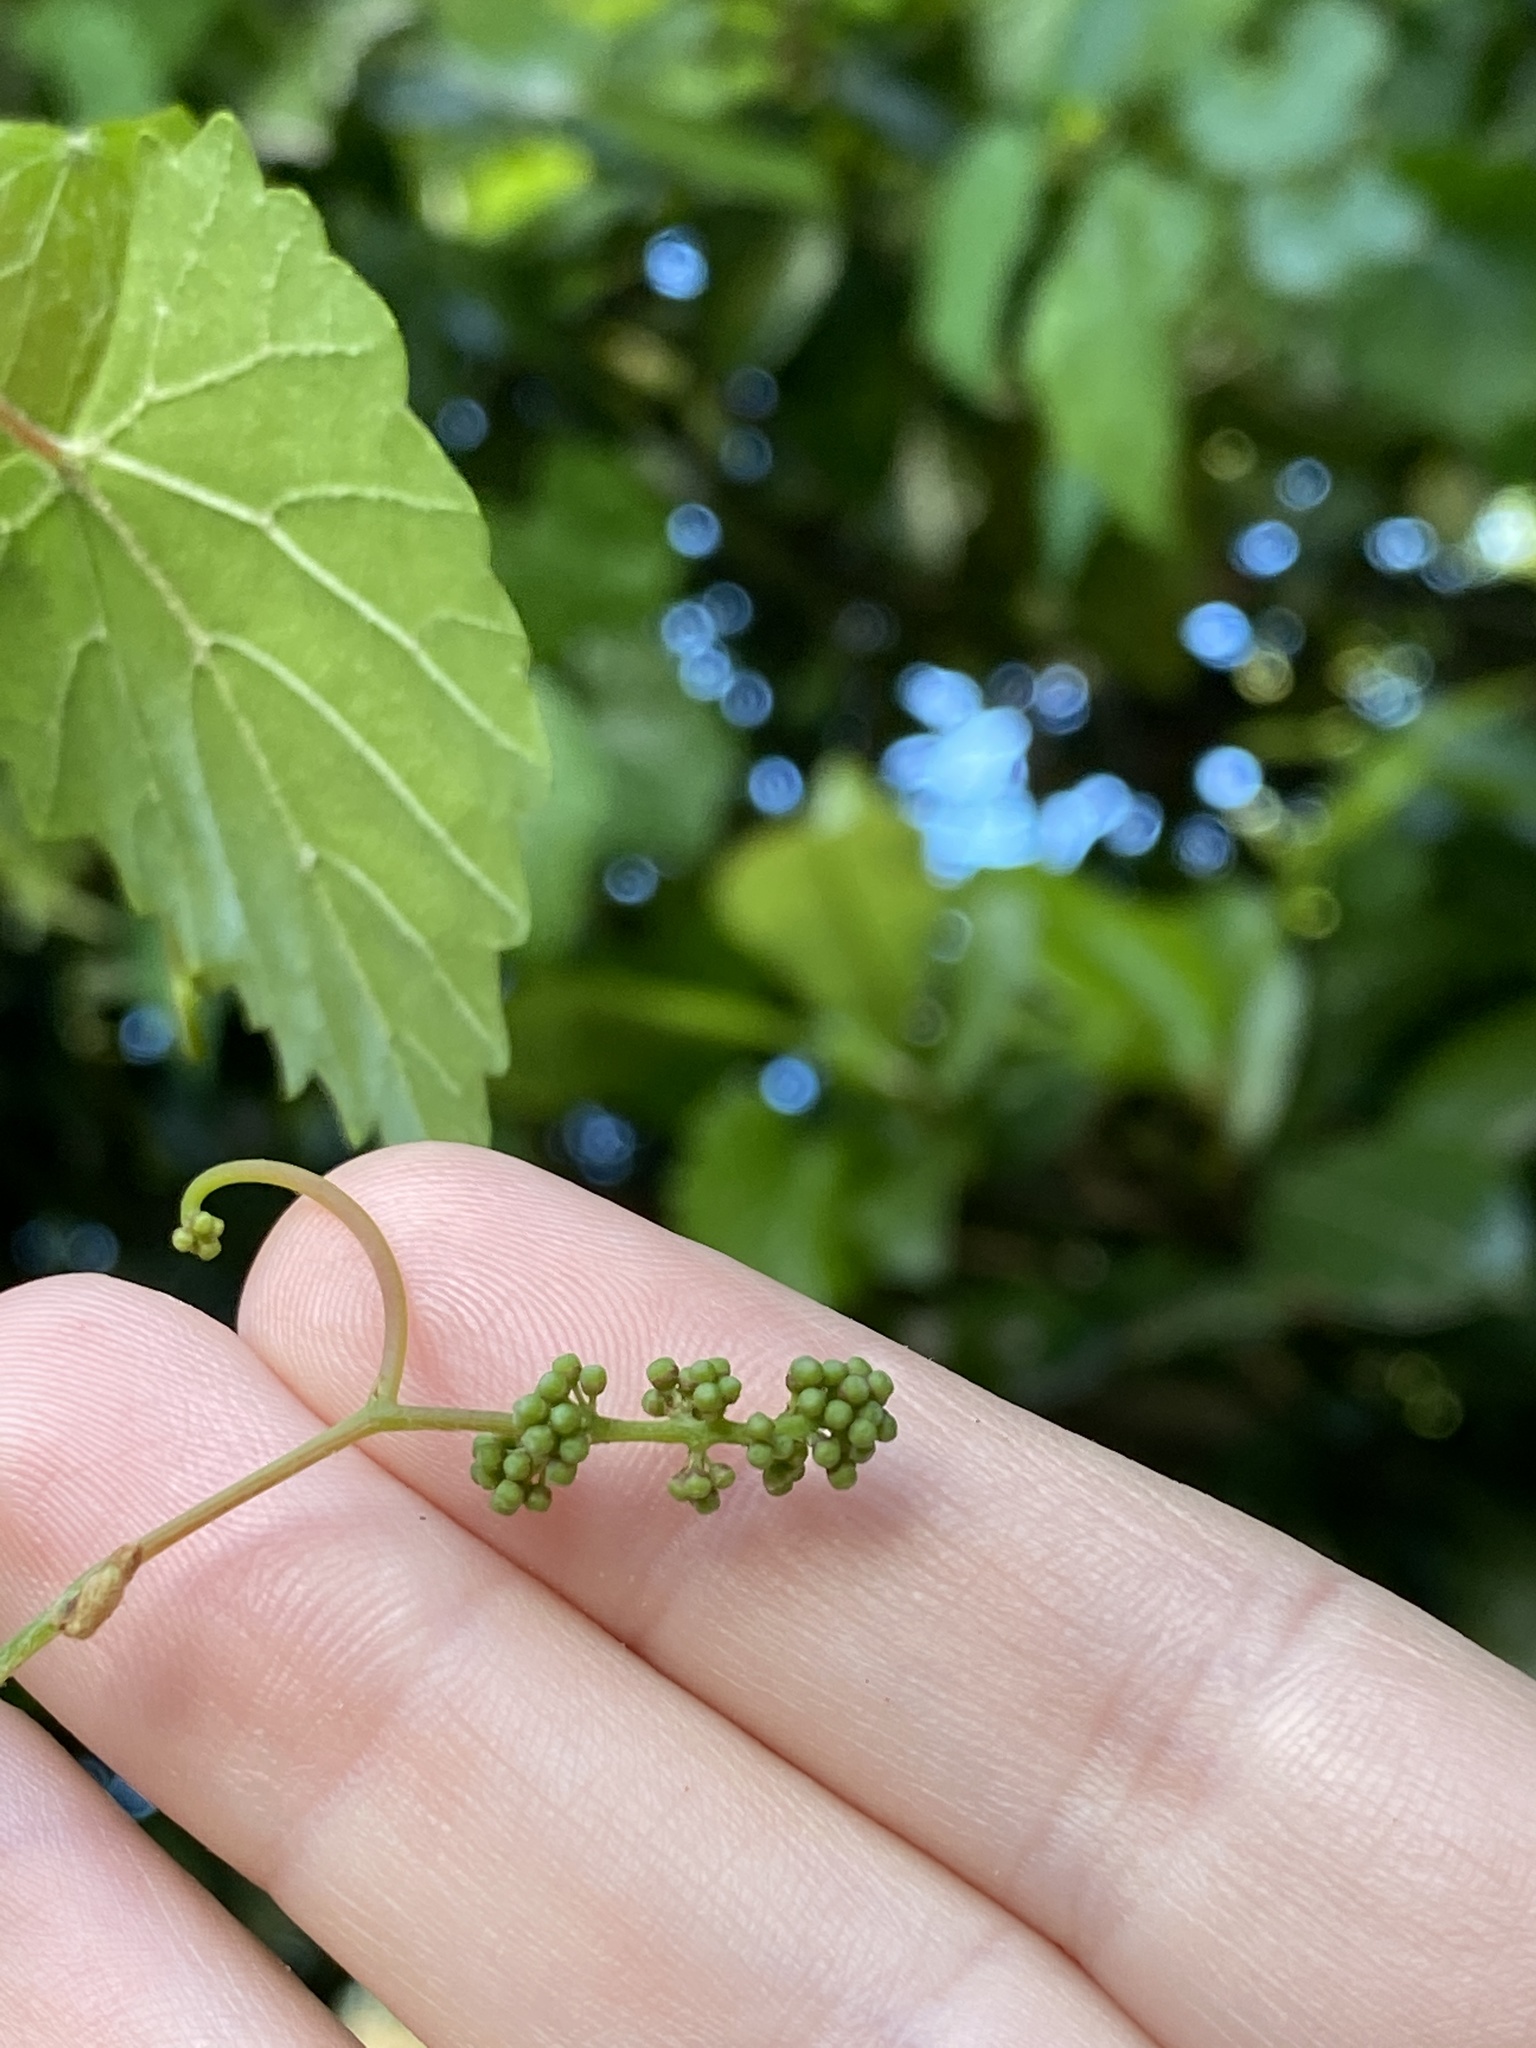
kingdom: Plantae
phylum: Tracheophyta
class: Magnoliopsida
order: Vitales
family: Vitaceae
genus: Vitis
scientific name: Vitis rotundifolia
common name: Muscadine grape
